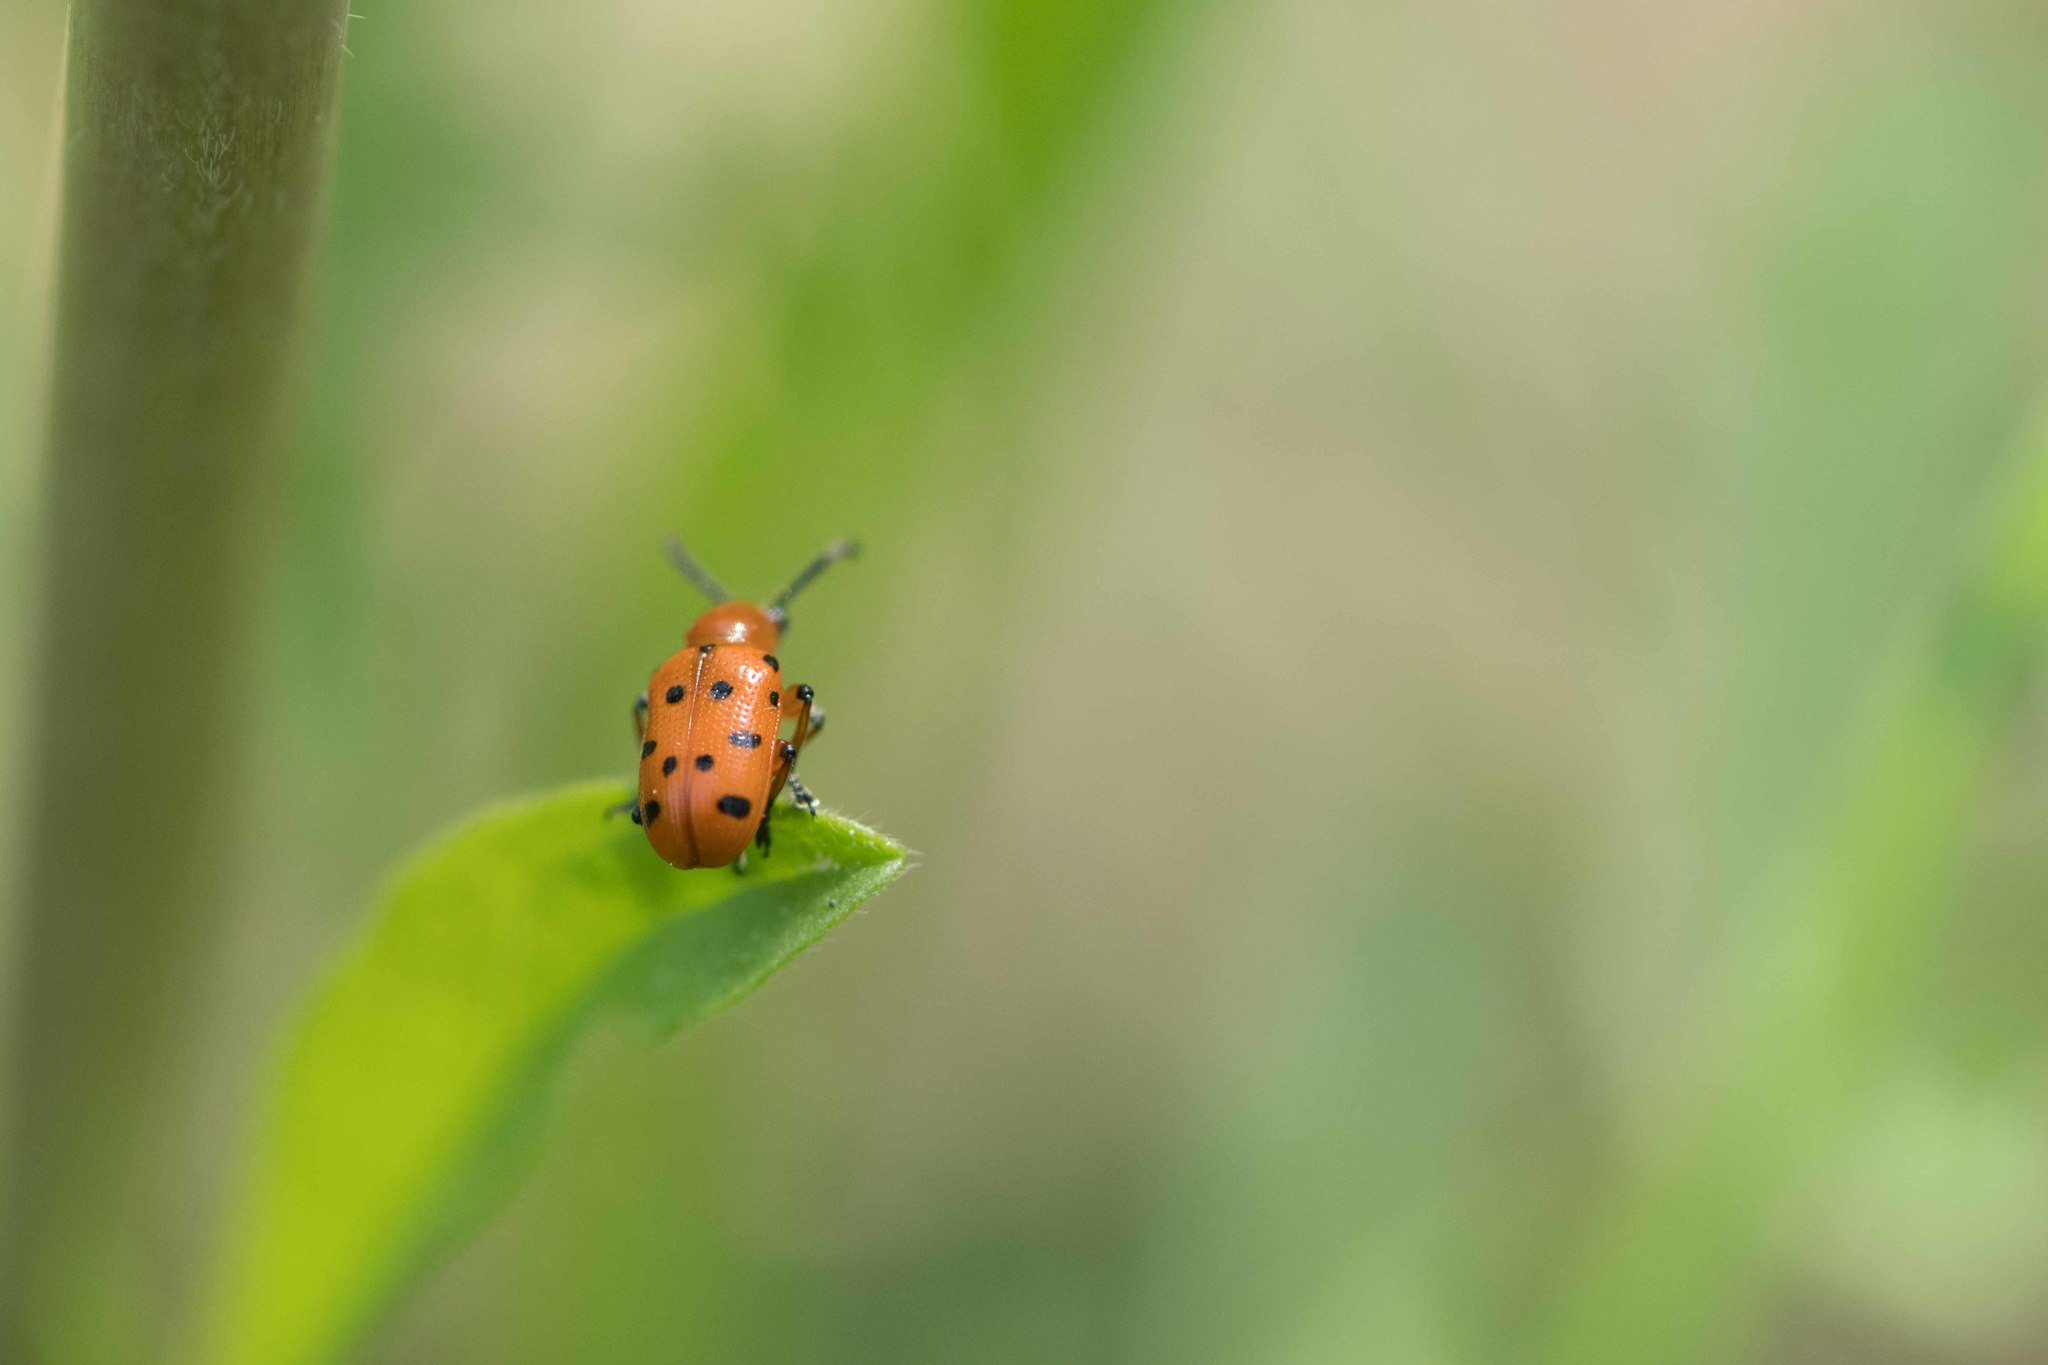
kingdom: Animalia
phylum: Arthropoda
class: Insecta
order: Coleoptera
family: Chrysomelidae
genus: Crioceris
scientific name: Crioceris duodecimpunctata
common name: Twelve-spotted asparagus beetle
